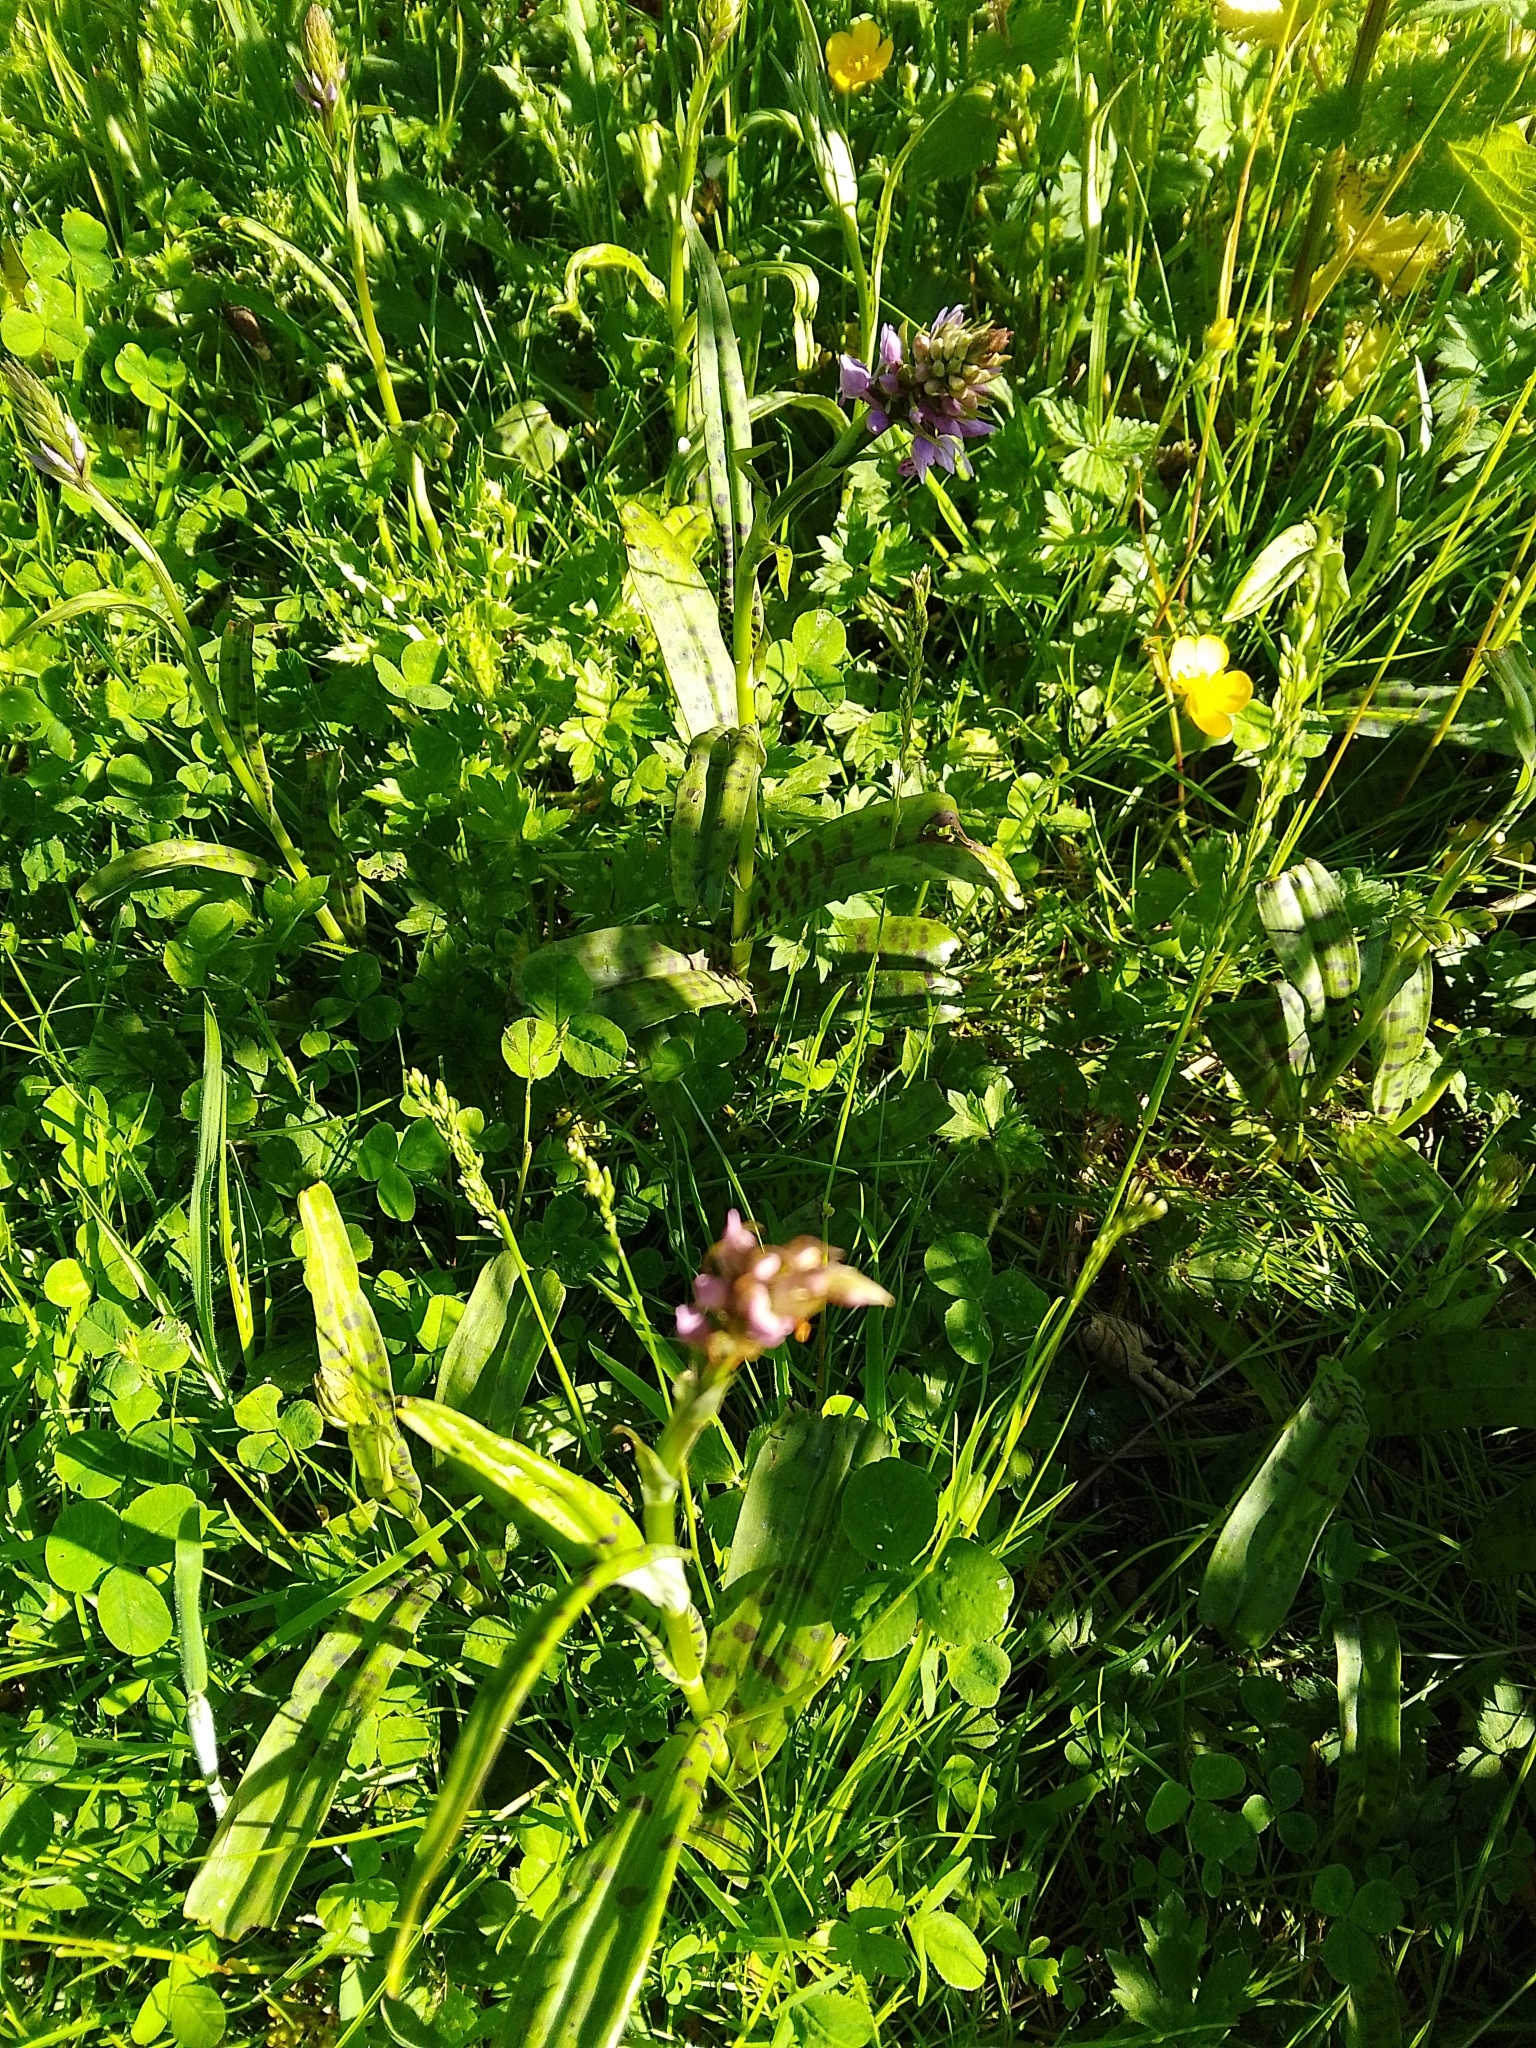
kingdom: Plantae
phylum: Tracheophyta
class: Liliopsida
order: Asparagales
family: Orchidaceae
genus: Dactylorhiza
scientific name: Dactylorhiza maculata
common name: Heath spotted-orchid
